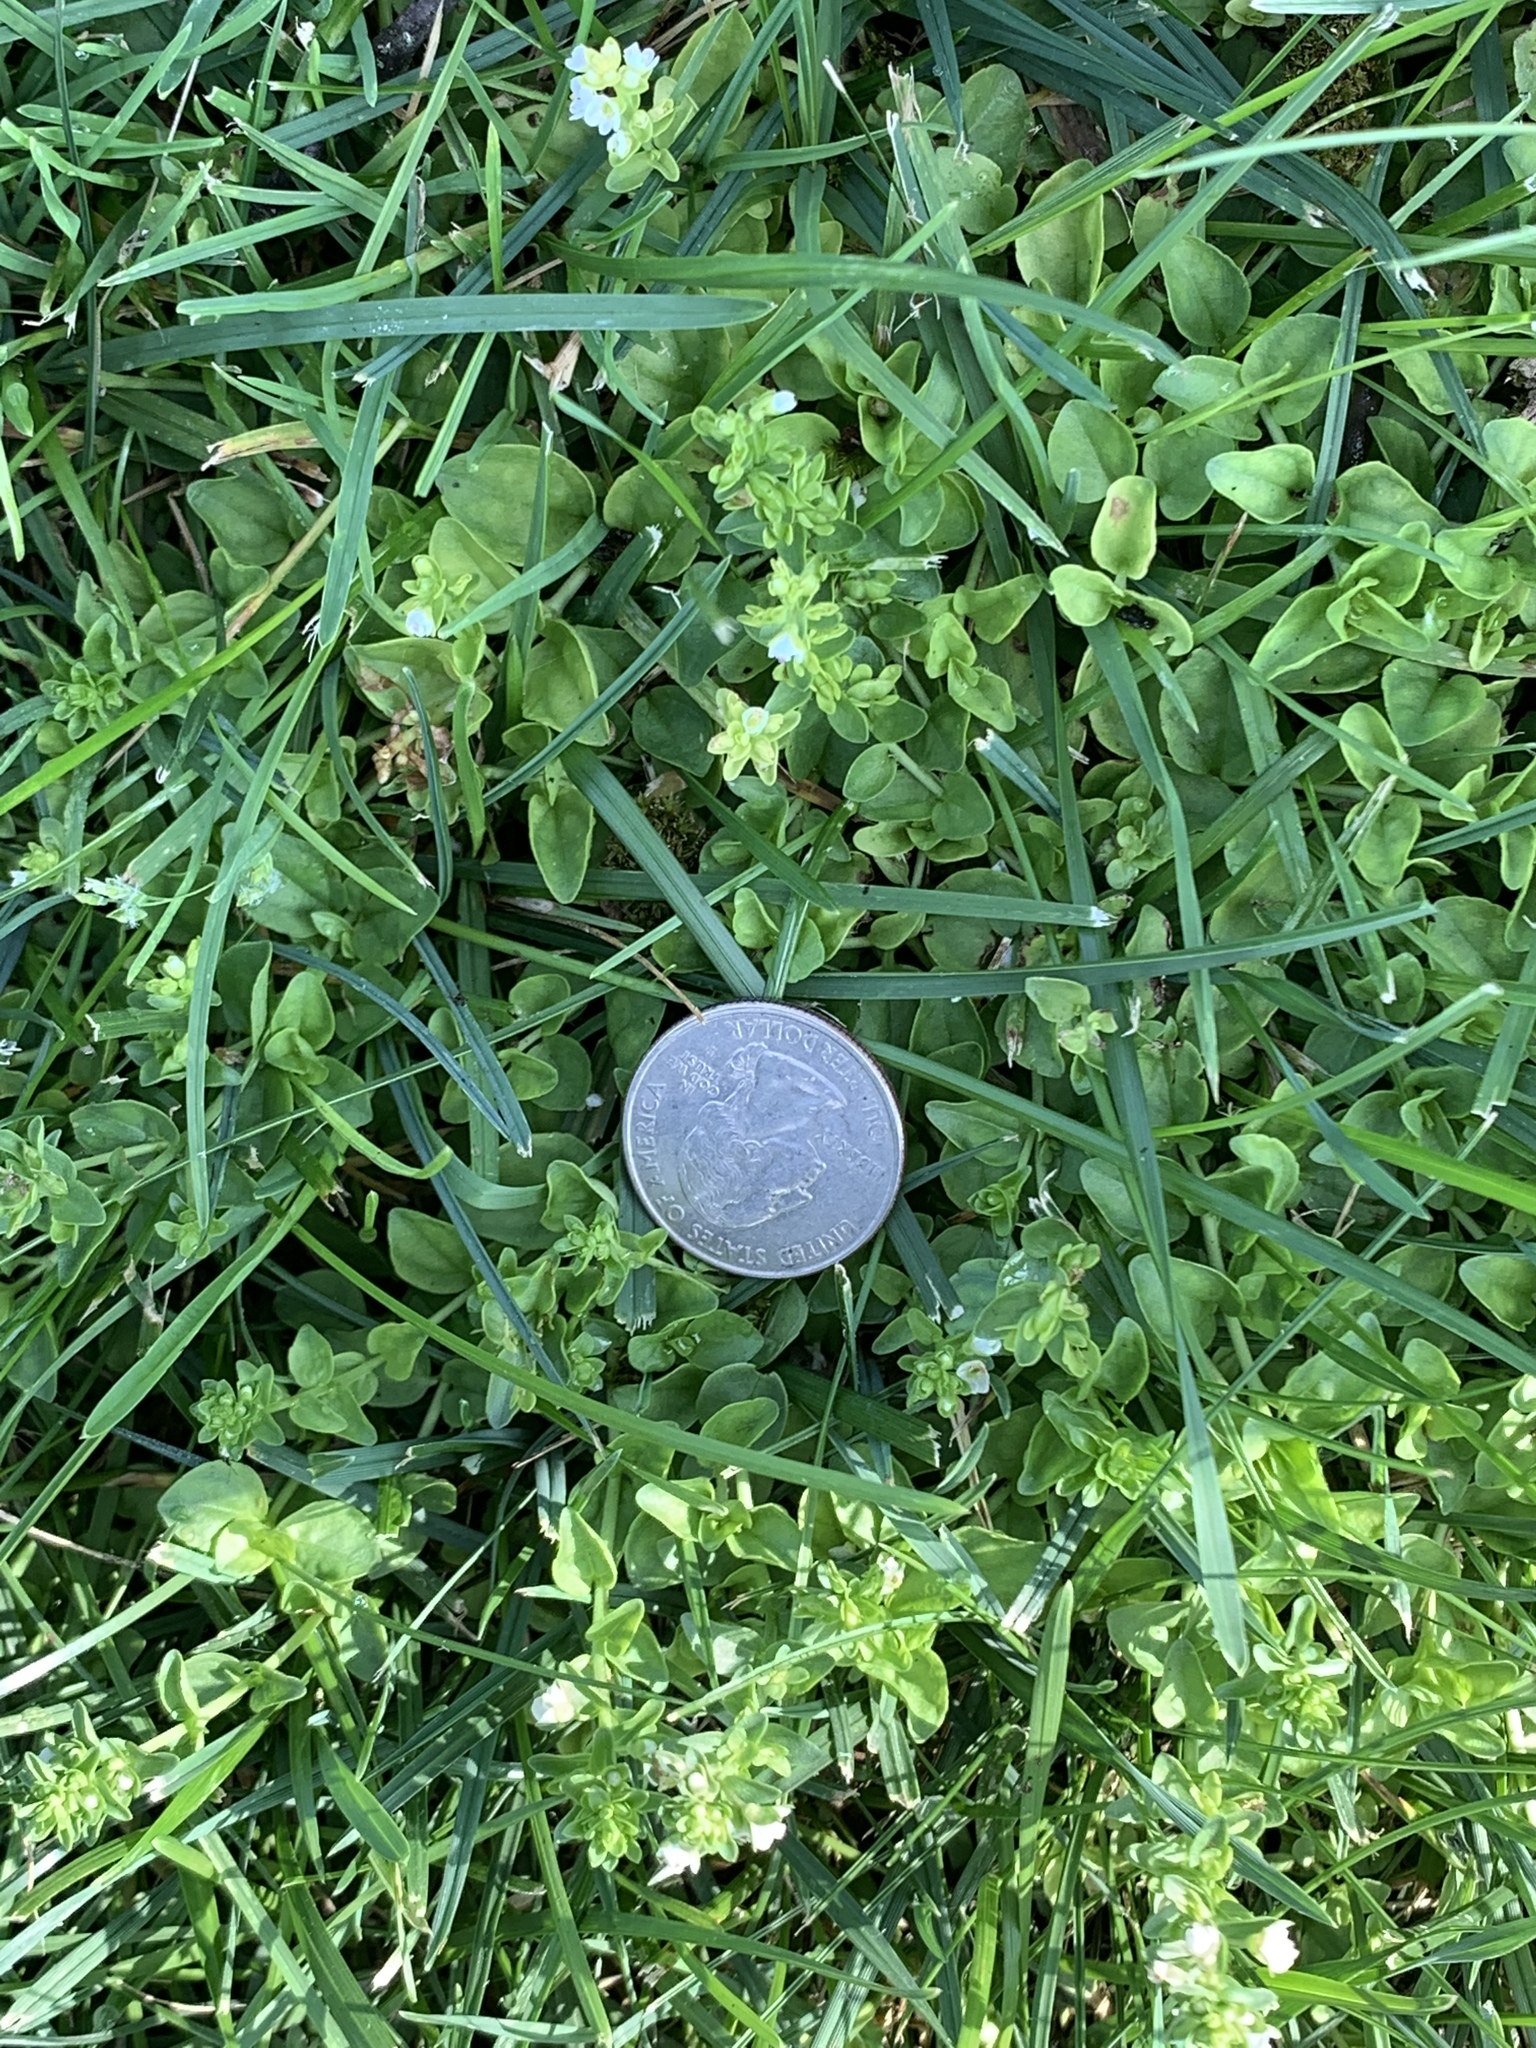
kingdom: Plantae
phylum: Tracheophyta
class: Magnoliopsida
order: Lamiales
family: Plantaginaceae
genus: Veronica
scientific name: Veronica serpyllifolia
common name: Thyme-leaved speedwell
